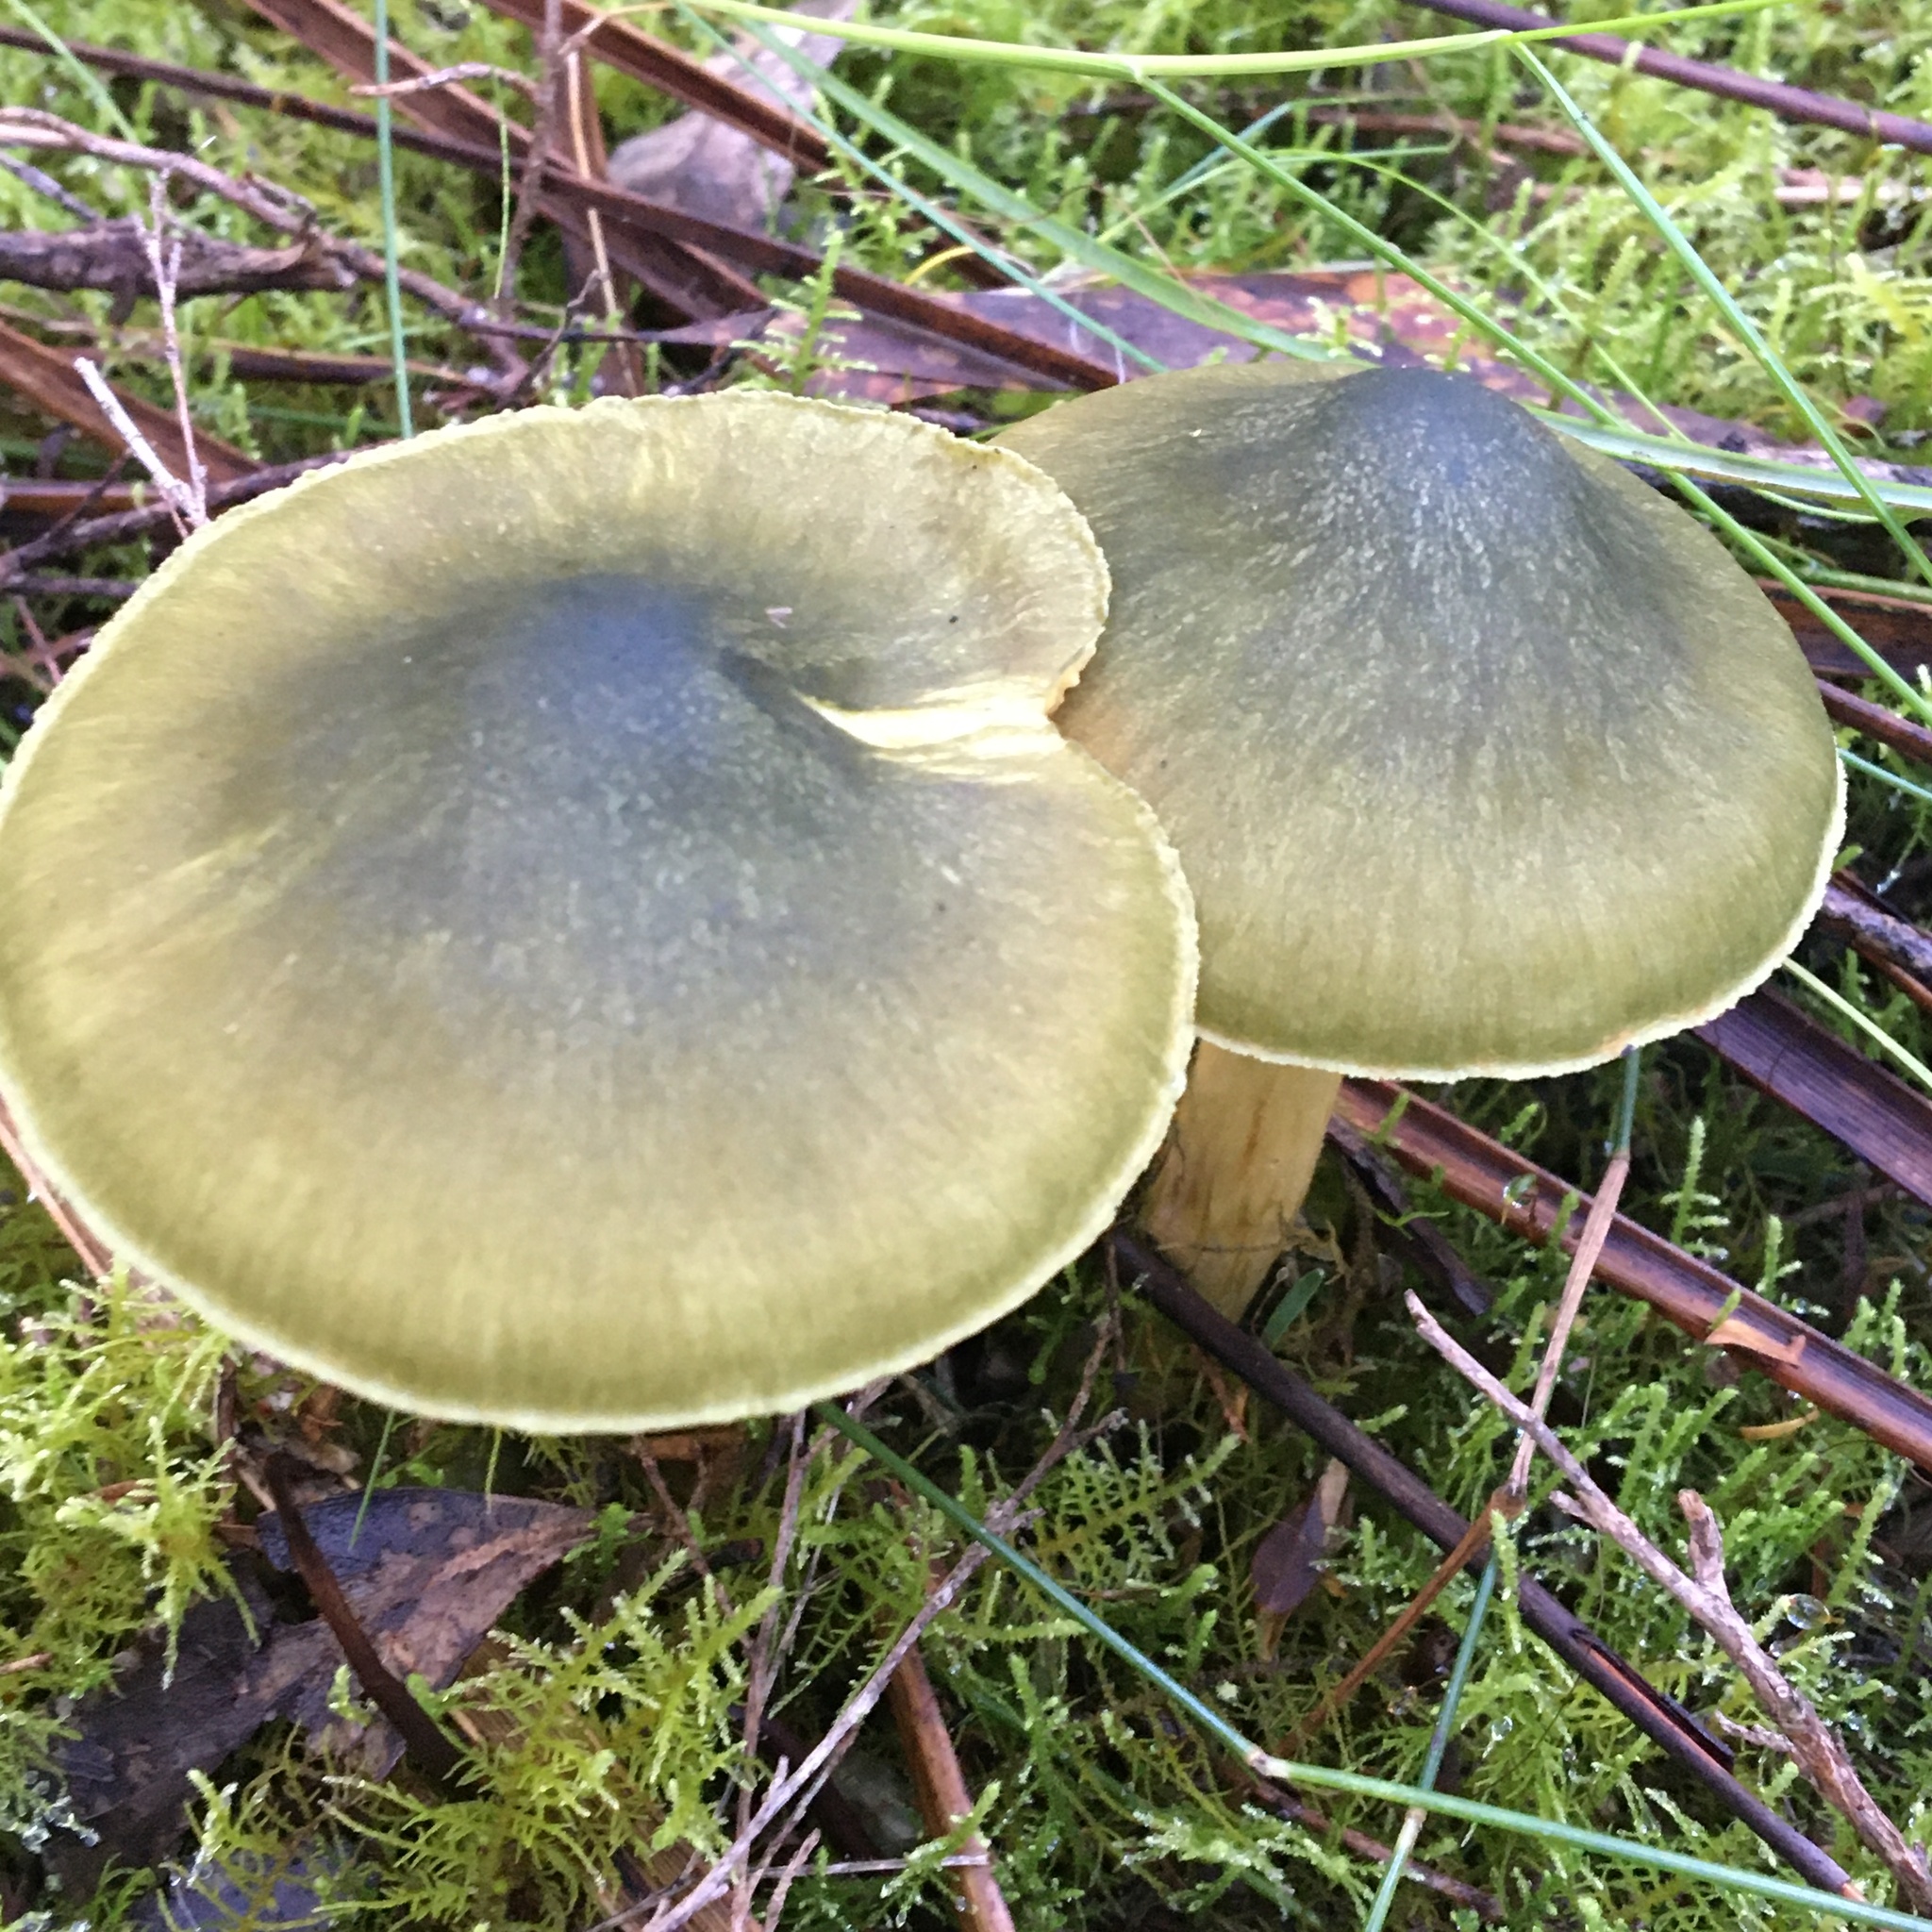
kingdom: Fungi
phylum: Basidiomycota
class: Agaricomycetes
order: Agaricales
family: Cortinariaceae
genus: Cortinarius
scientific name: Cortinarius austrovenetus
